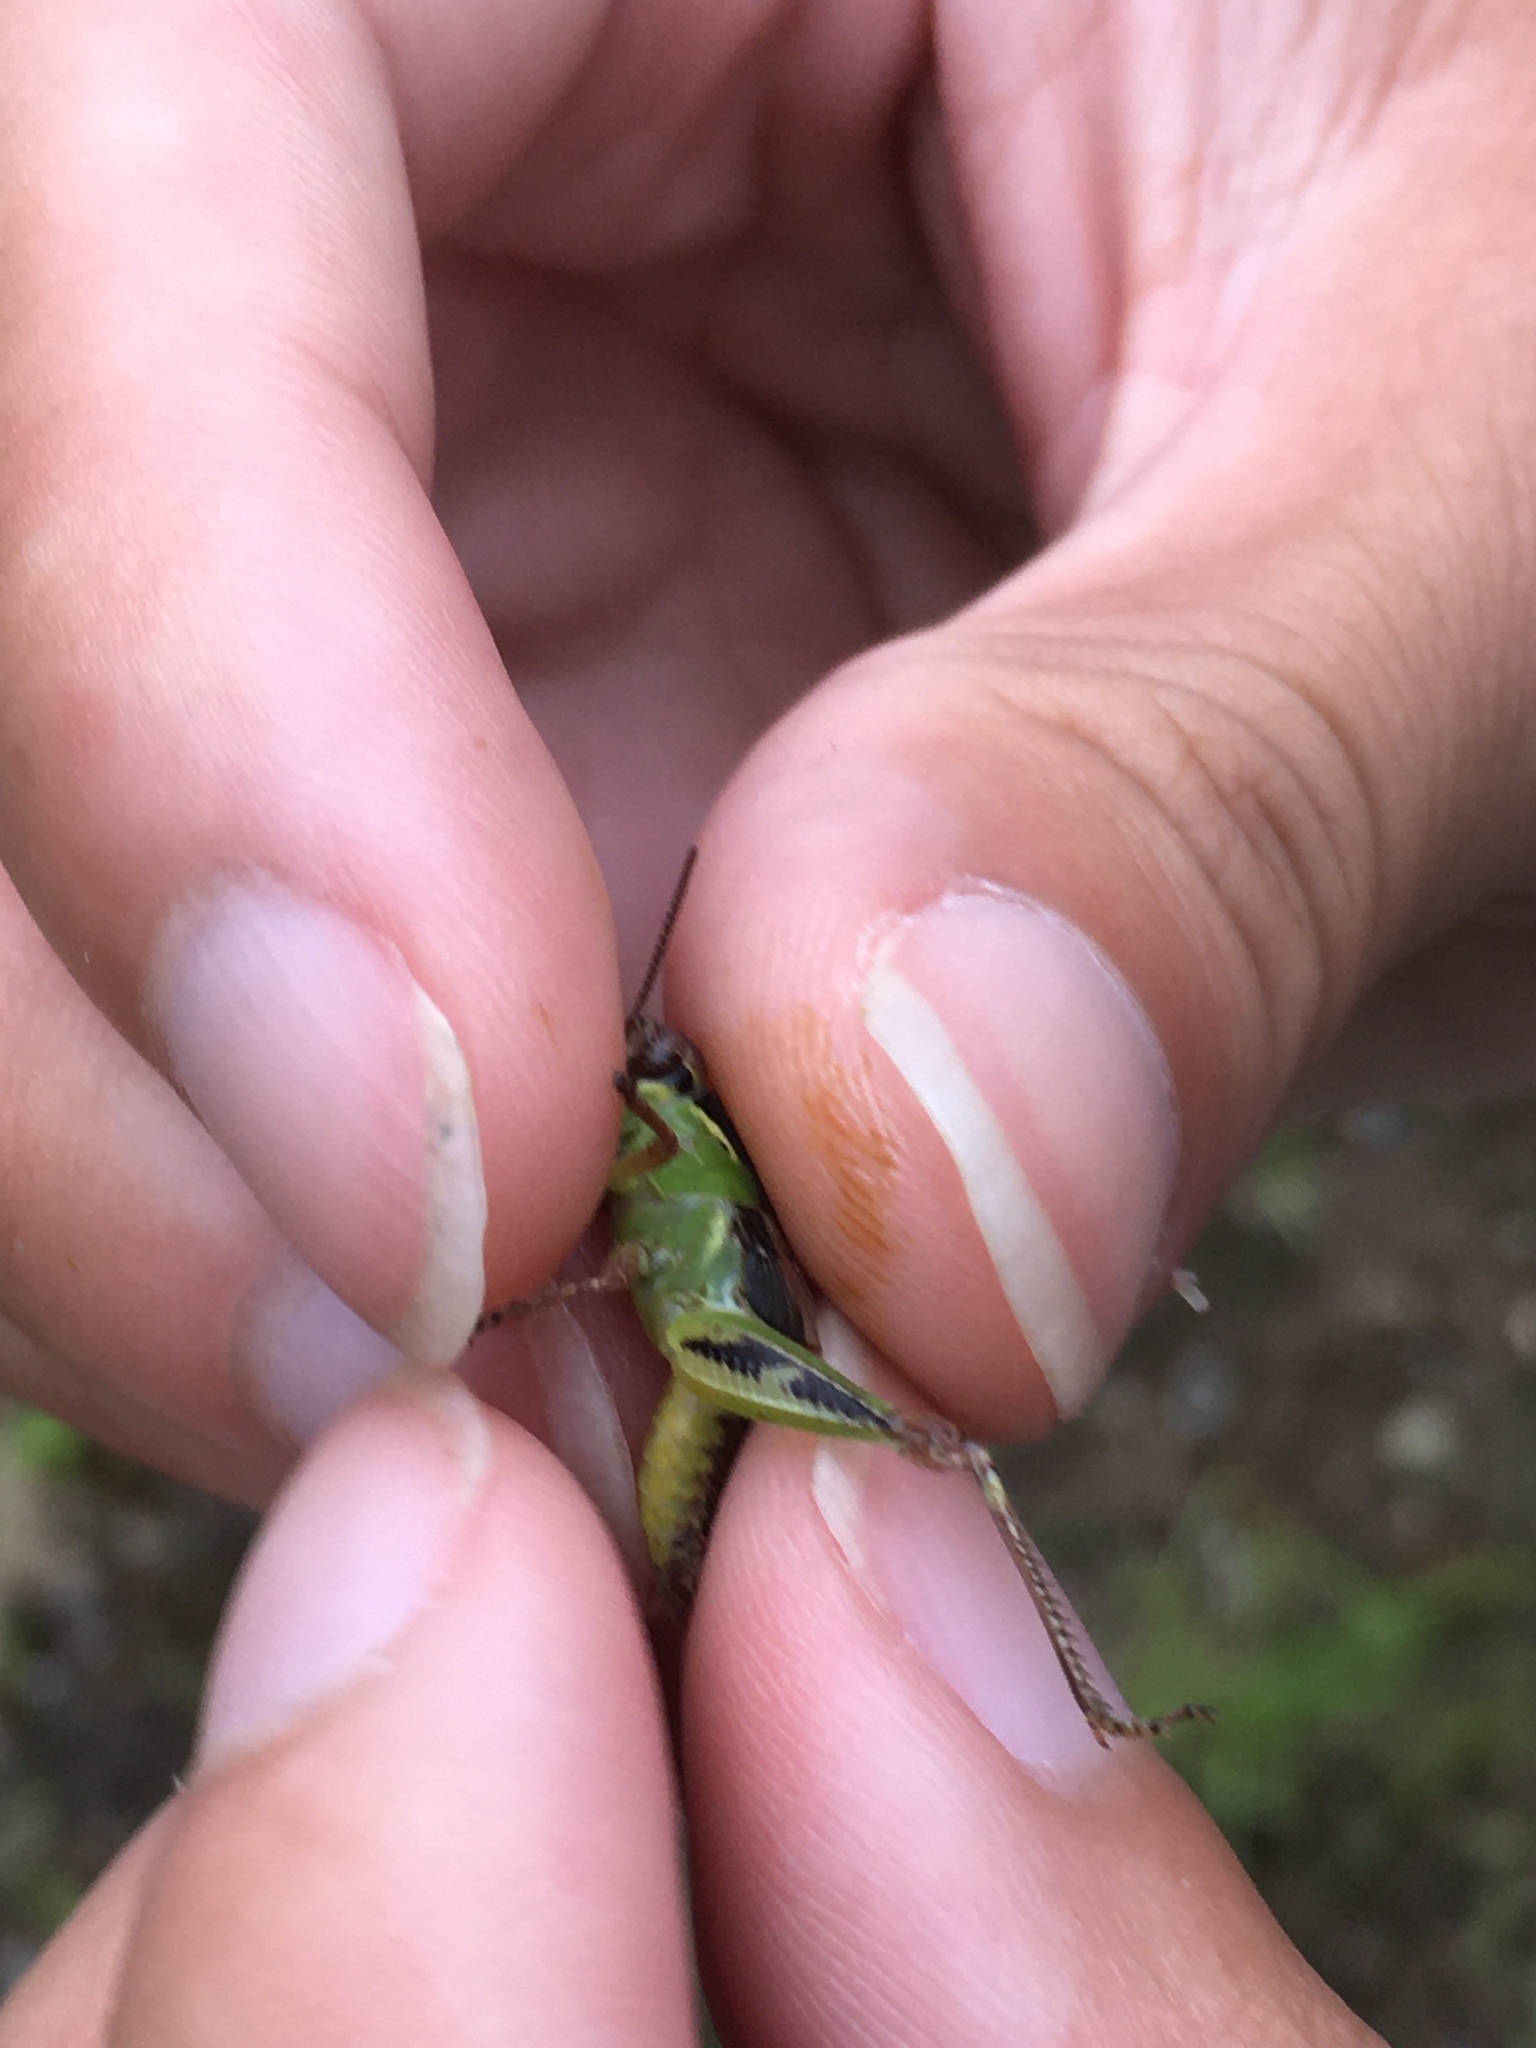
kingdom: Animalia
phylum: Arthropoda
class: Insecta
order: Orthoptera
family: Acrididae
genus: Melanoplus
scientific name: Melanoplus fasciatus
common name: Huckleberry locust
